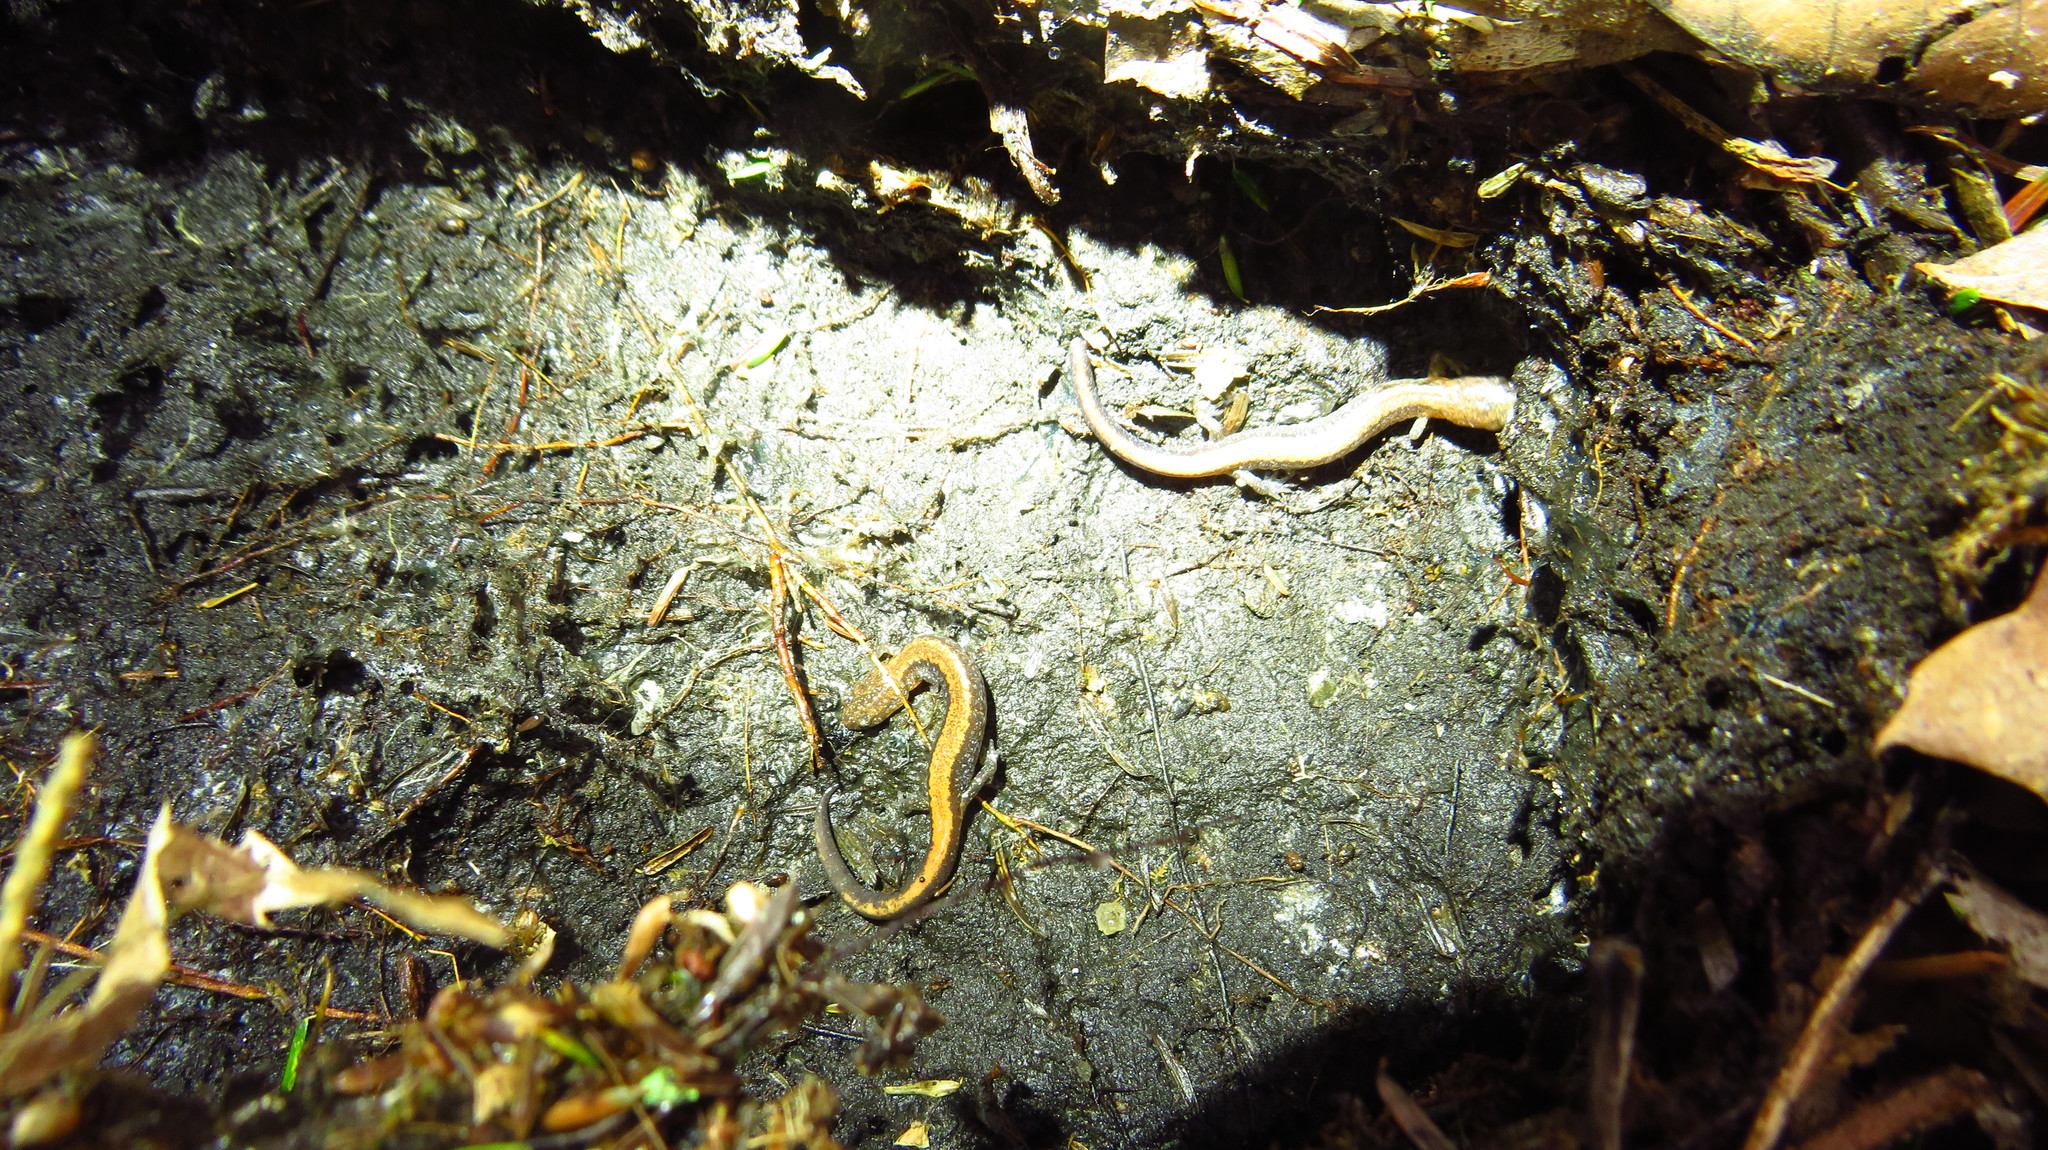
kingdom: Animalia
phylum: Chordata
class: Amphibia
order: Caudata
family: Plethodontidae
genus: Plethodon
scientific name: Plethodon cinereus
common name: Redback salamander
